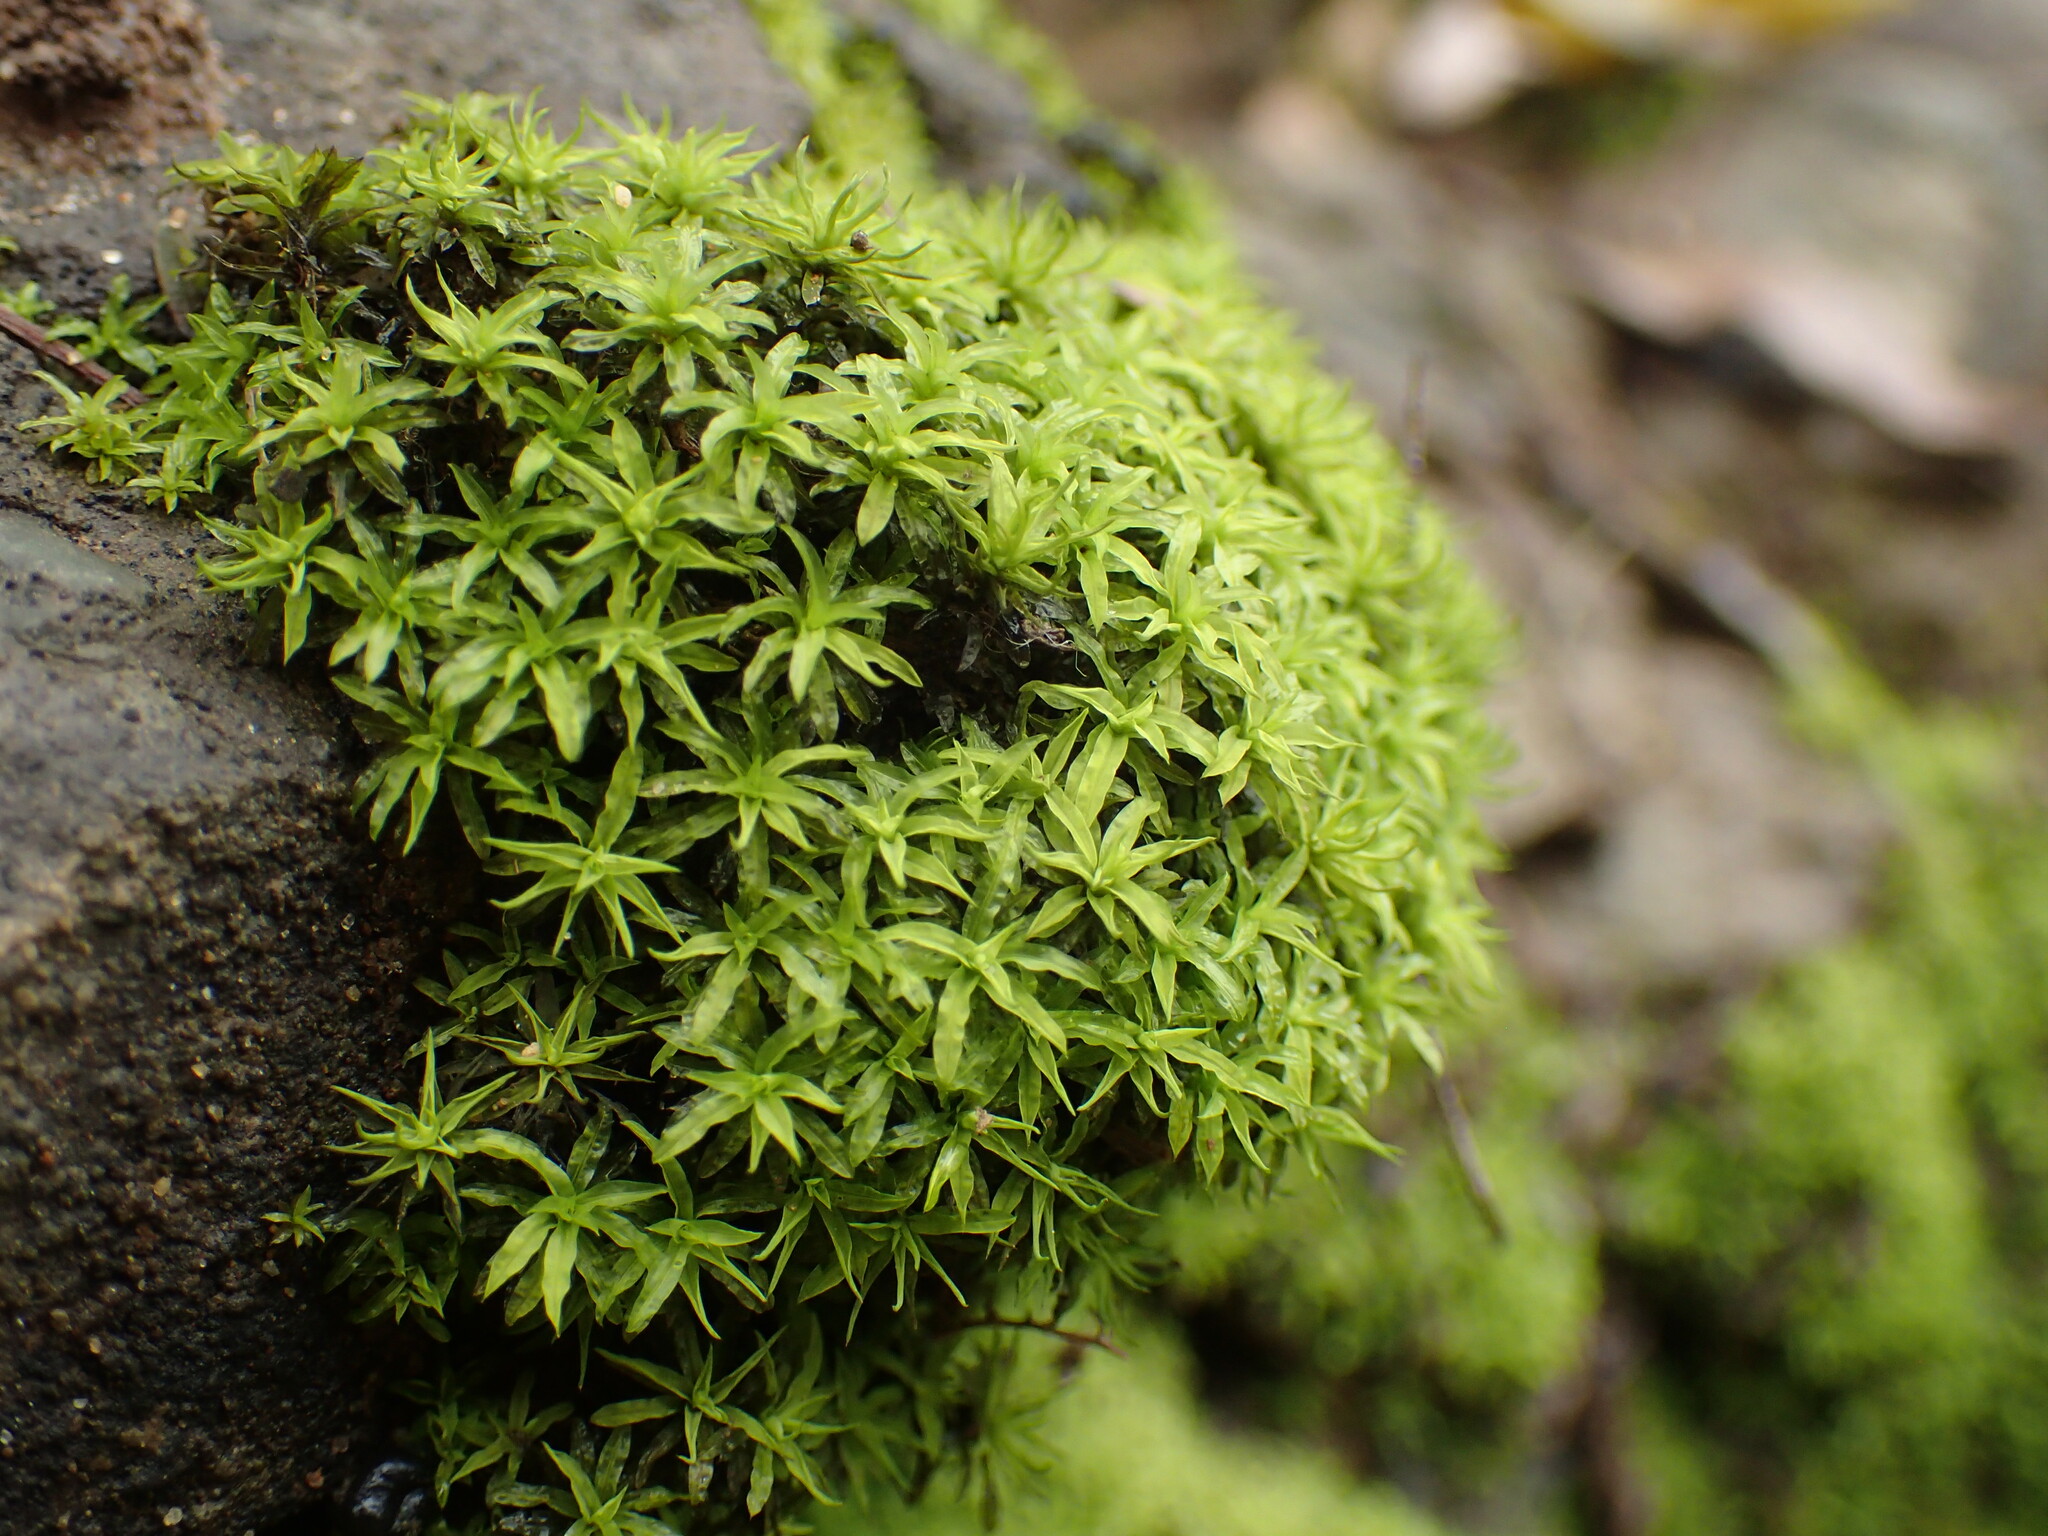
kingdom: Plantae
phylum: Bryophyta
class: Bryopsida
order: Pottiales
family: Pottiaceae
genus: Trichostomum
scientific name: Trichostomum brachydontium
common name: Variable crisp-moss
